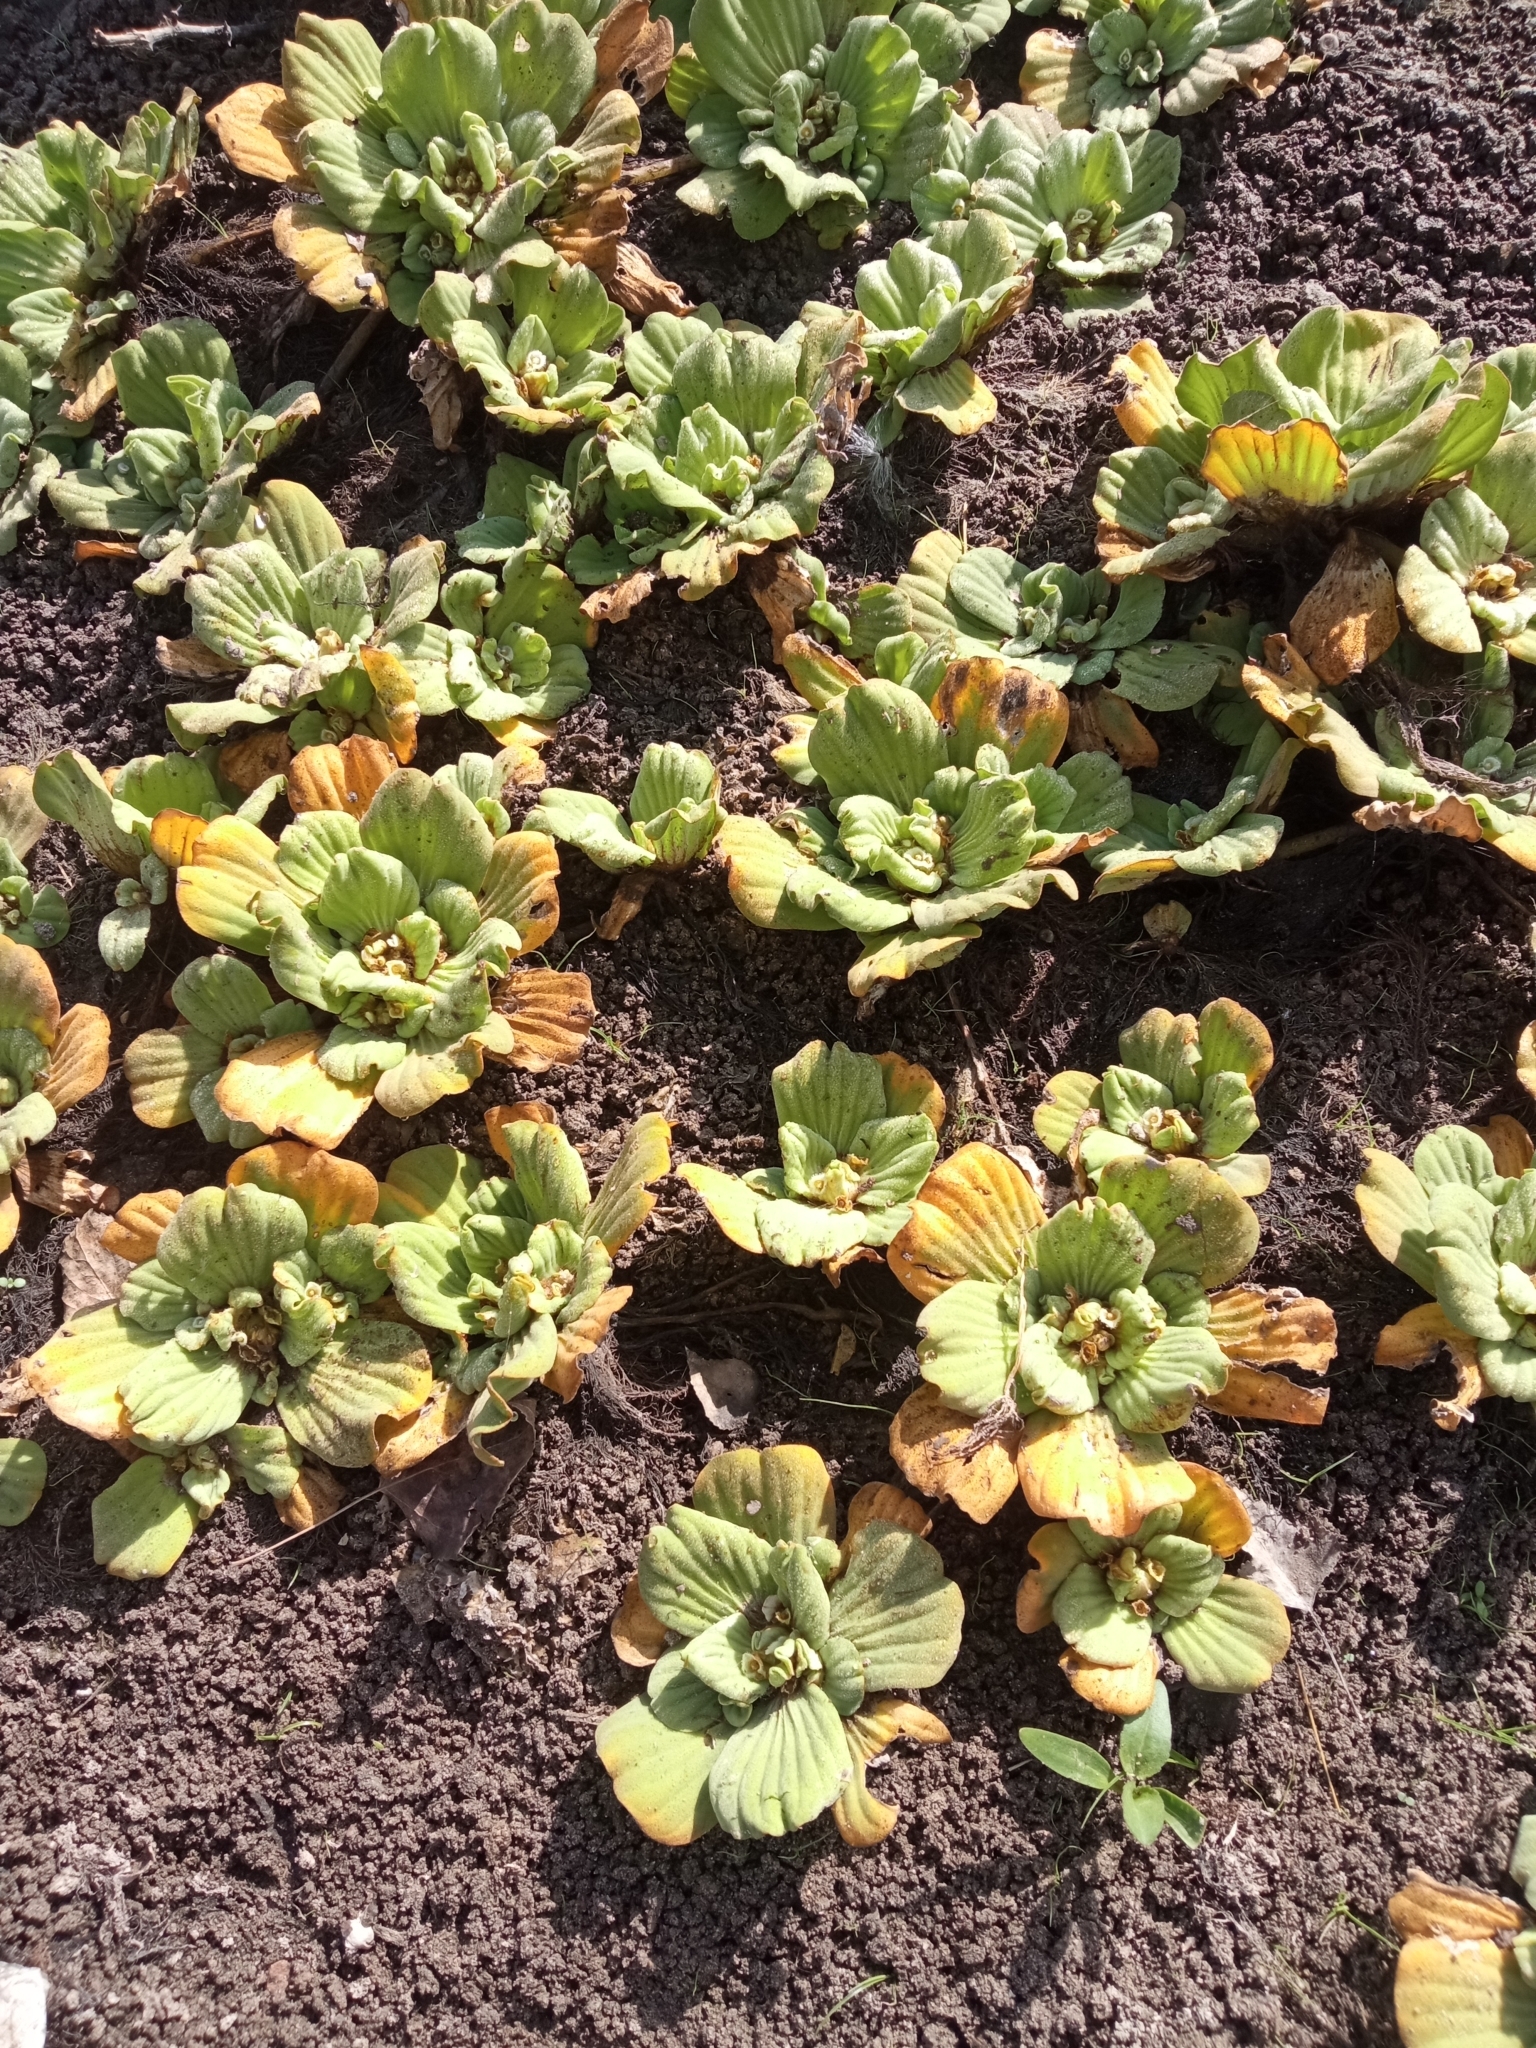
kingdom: Plantae
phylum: Tracheophyta
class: Liliopsida
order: Alismatales
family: Araceae
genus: Pistia
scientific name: Pistia stratiotes
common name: Water lettuce
